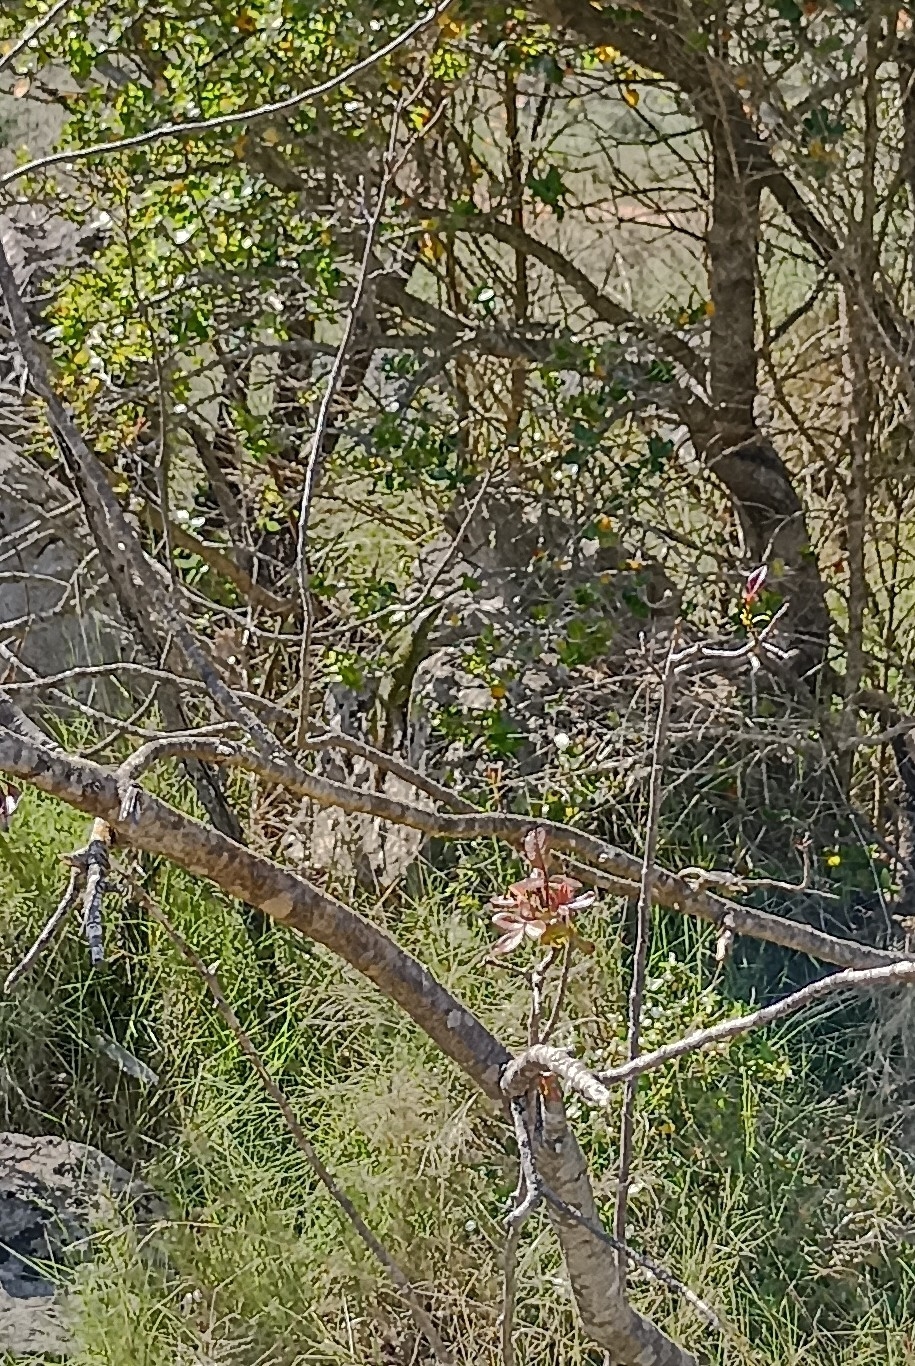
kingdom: Animalia
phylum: Chordata
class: Squamata
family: Lacertidae
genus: Timon
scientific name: Timon lepidus
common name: Ocellated lizard
